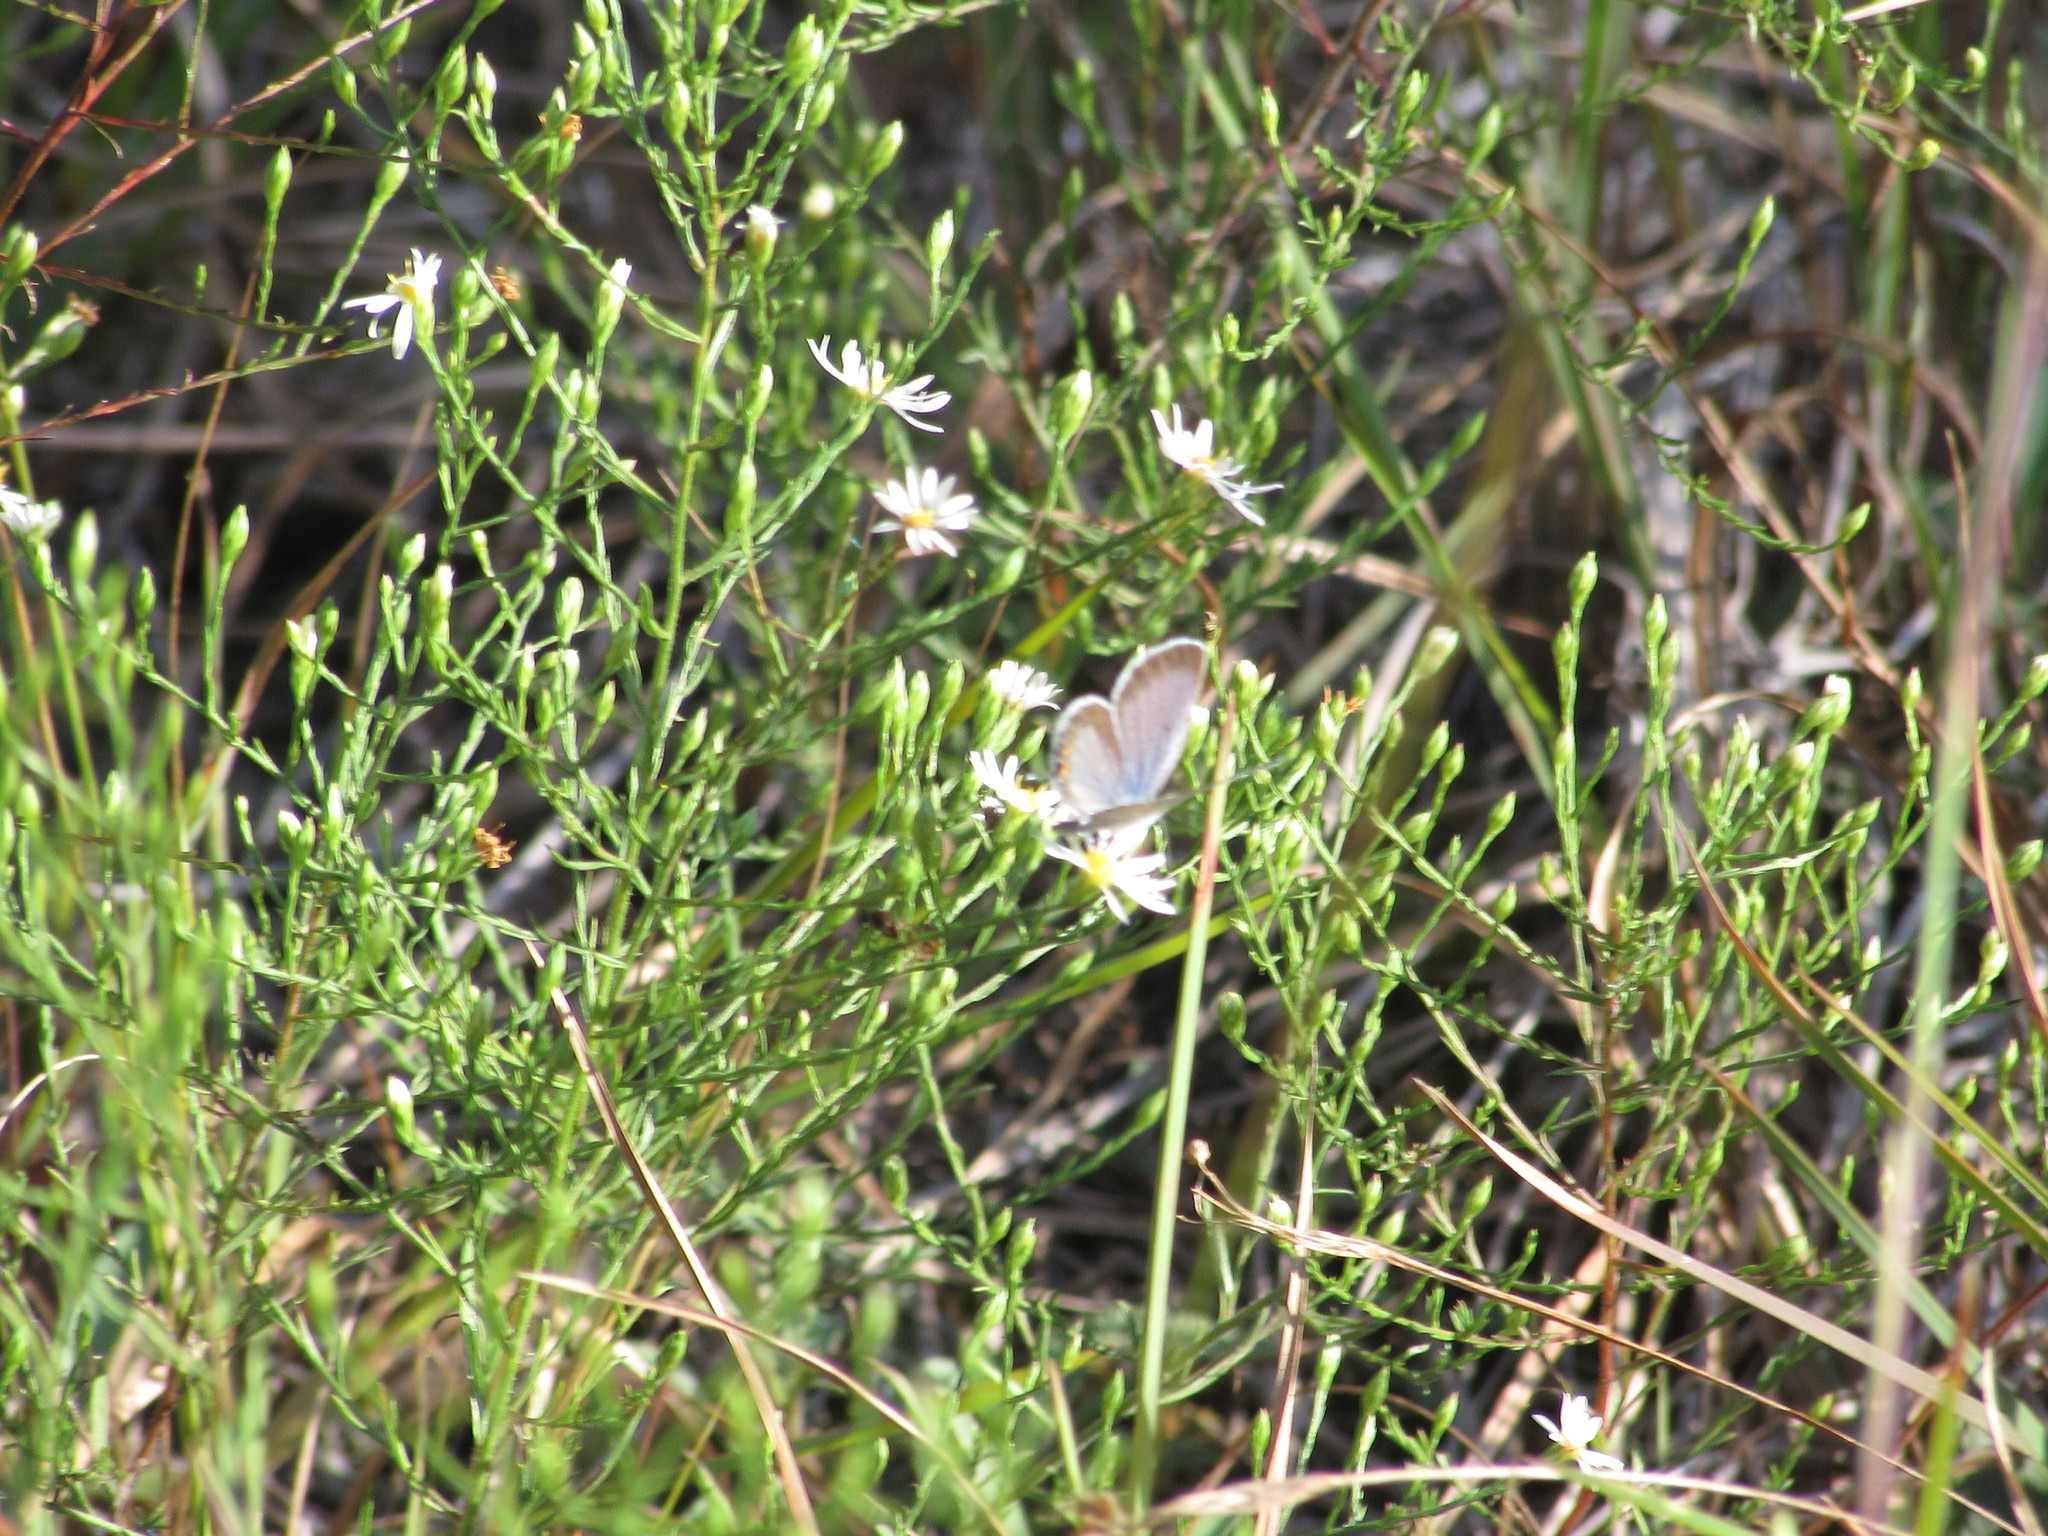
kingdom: Animalia
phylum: Arthropoda
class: Insecta
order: Lepidoptera
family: Lycaenidae
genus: Elkalyce
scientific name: Elkalyce comyntas
